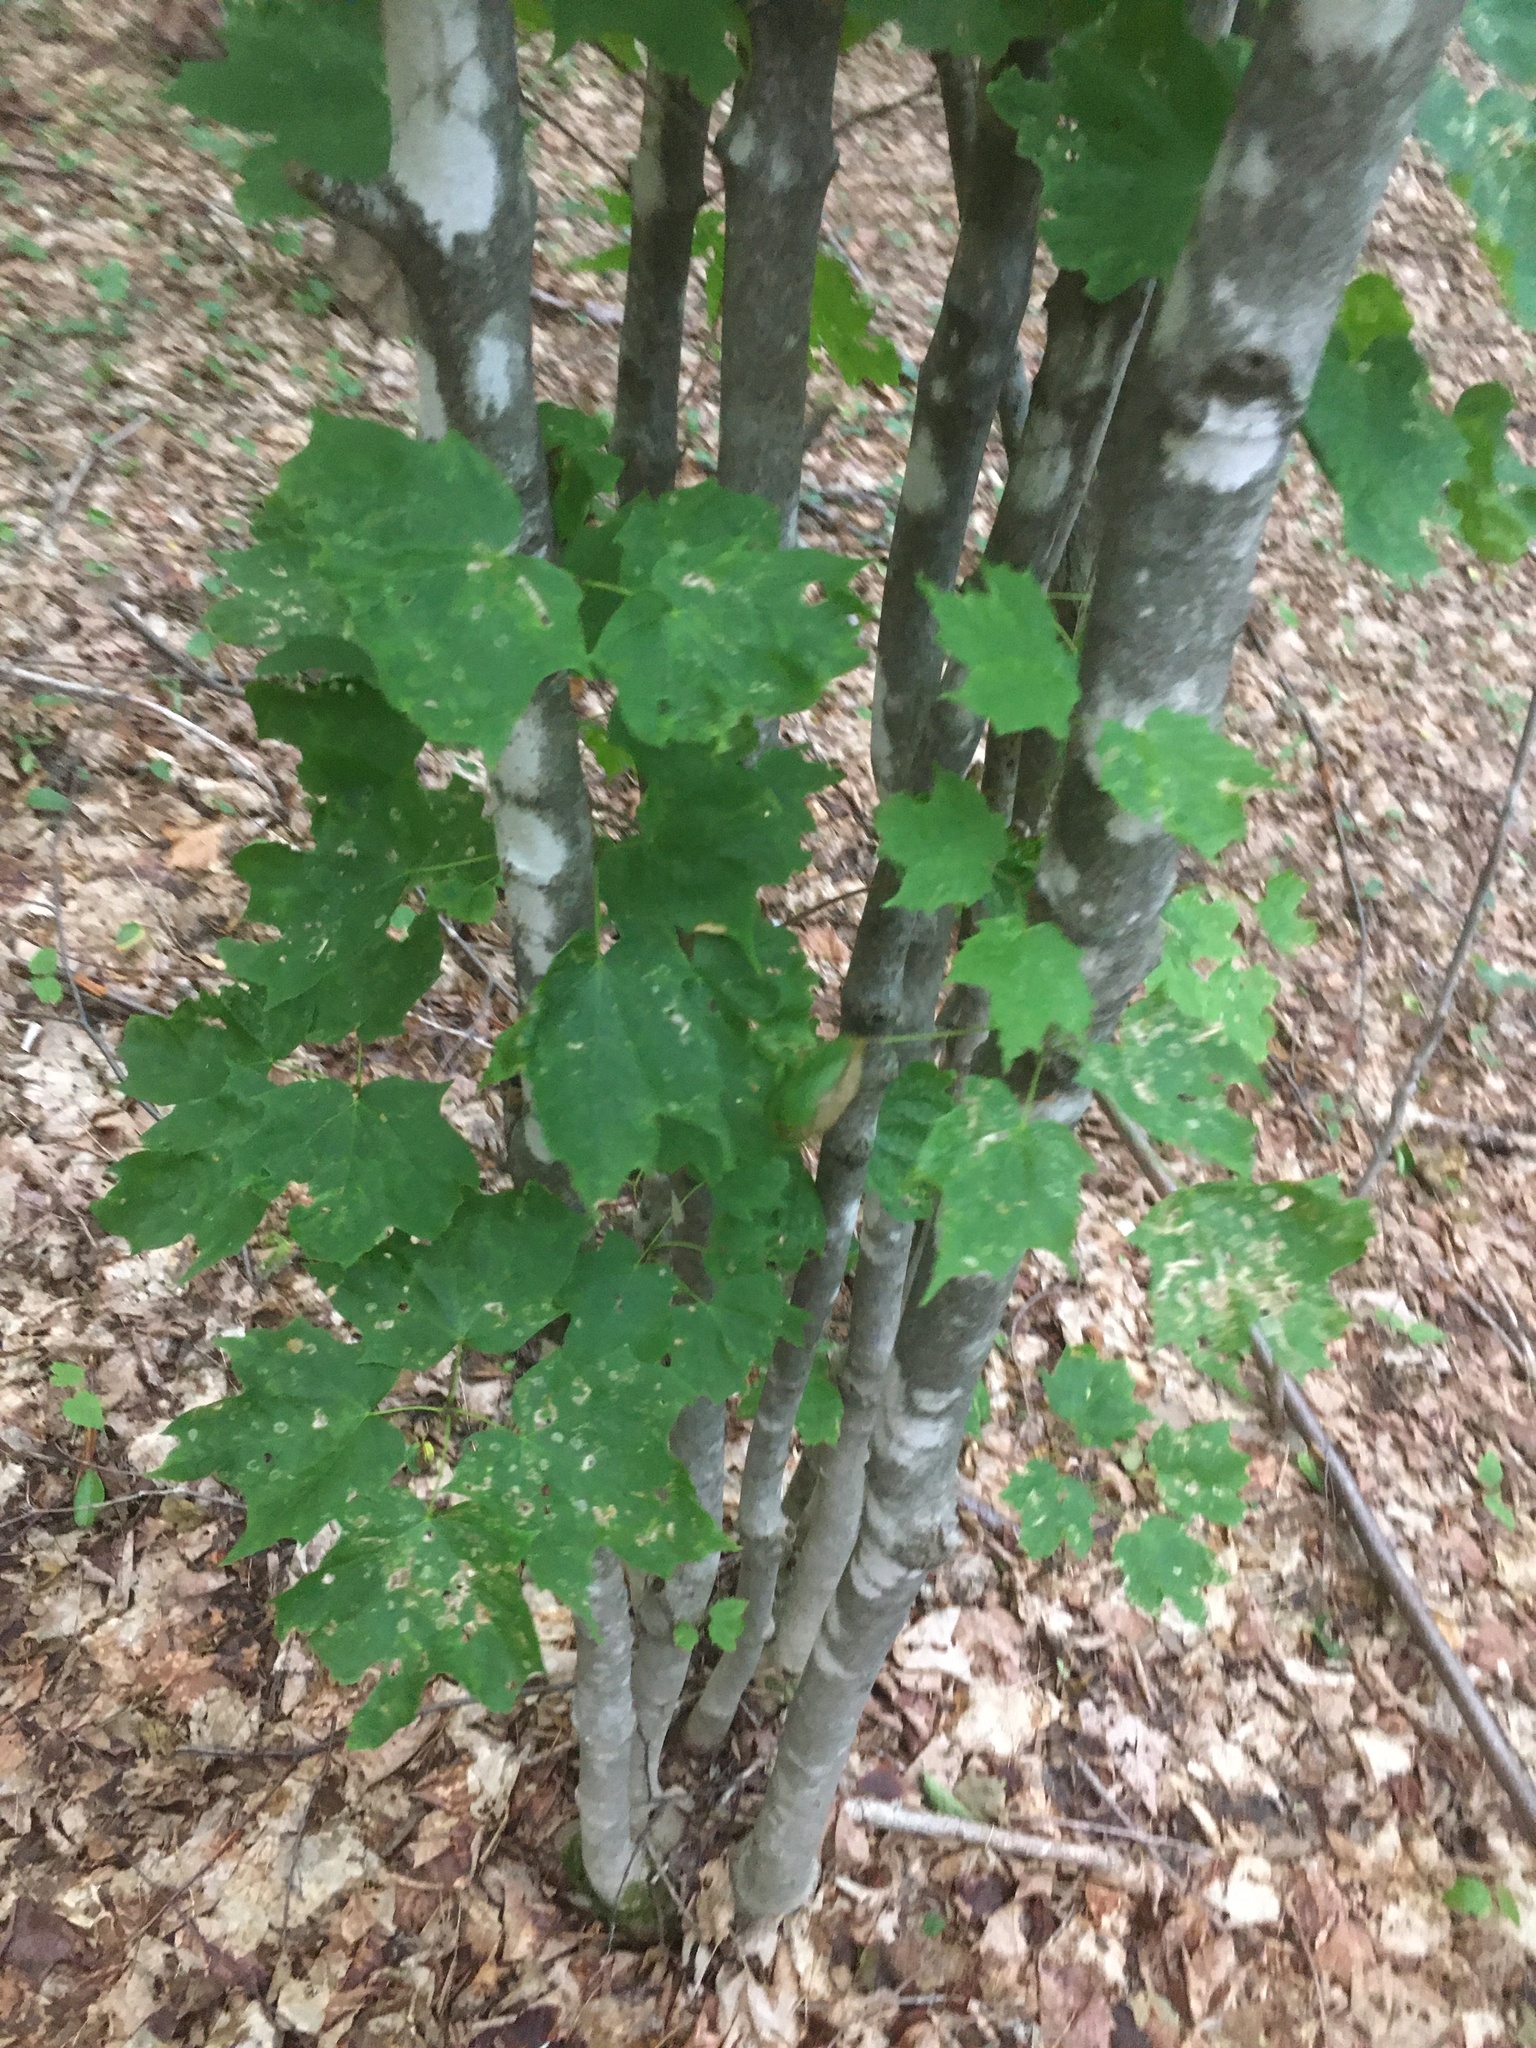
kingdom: Plantae
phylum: Tracheophyta
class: Magnoliopsida
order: Sapindales
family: Sapindaceae
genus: Acer
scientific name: Acer saccharum
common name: Sugar maple
